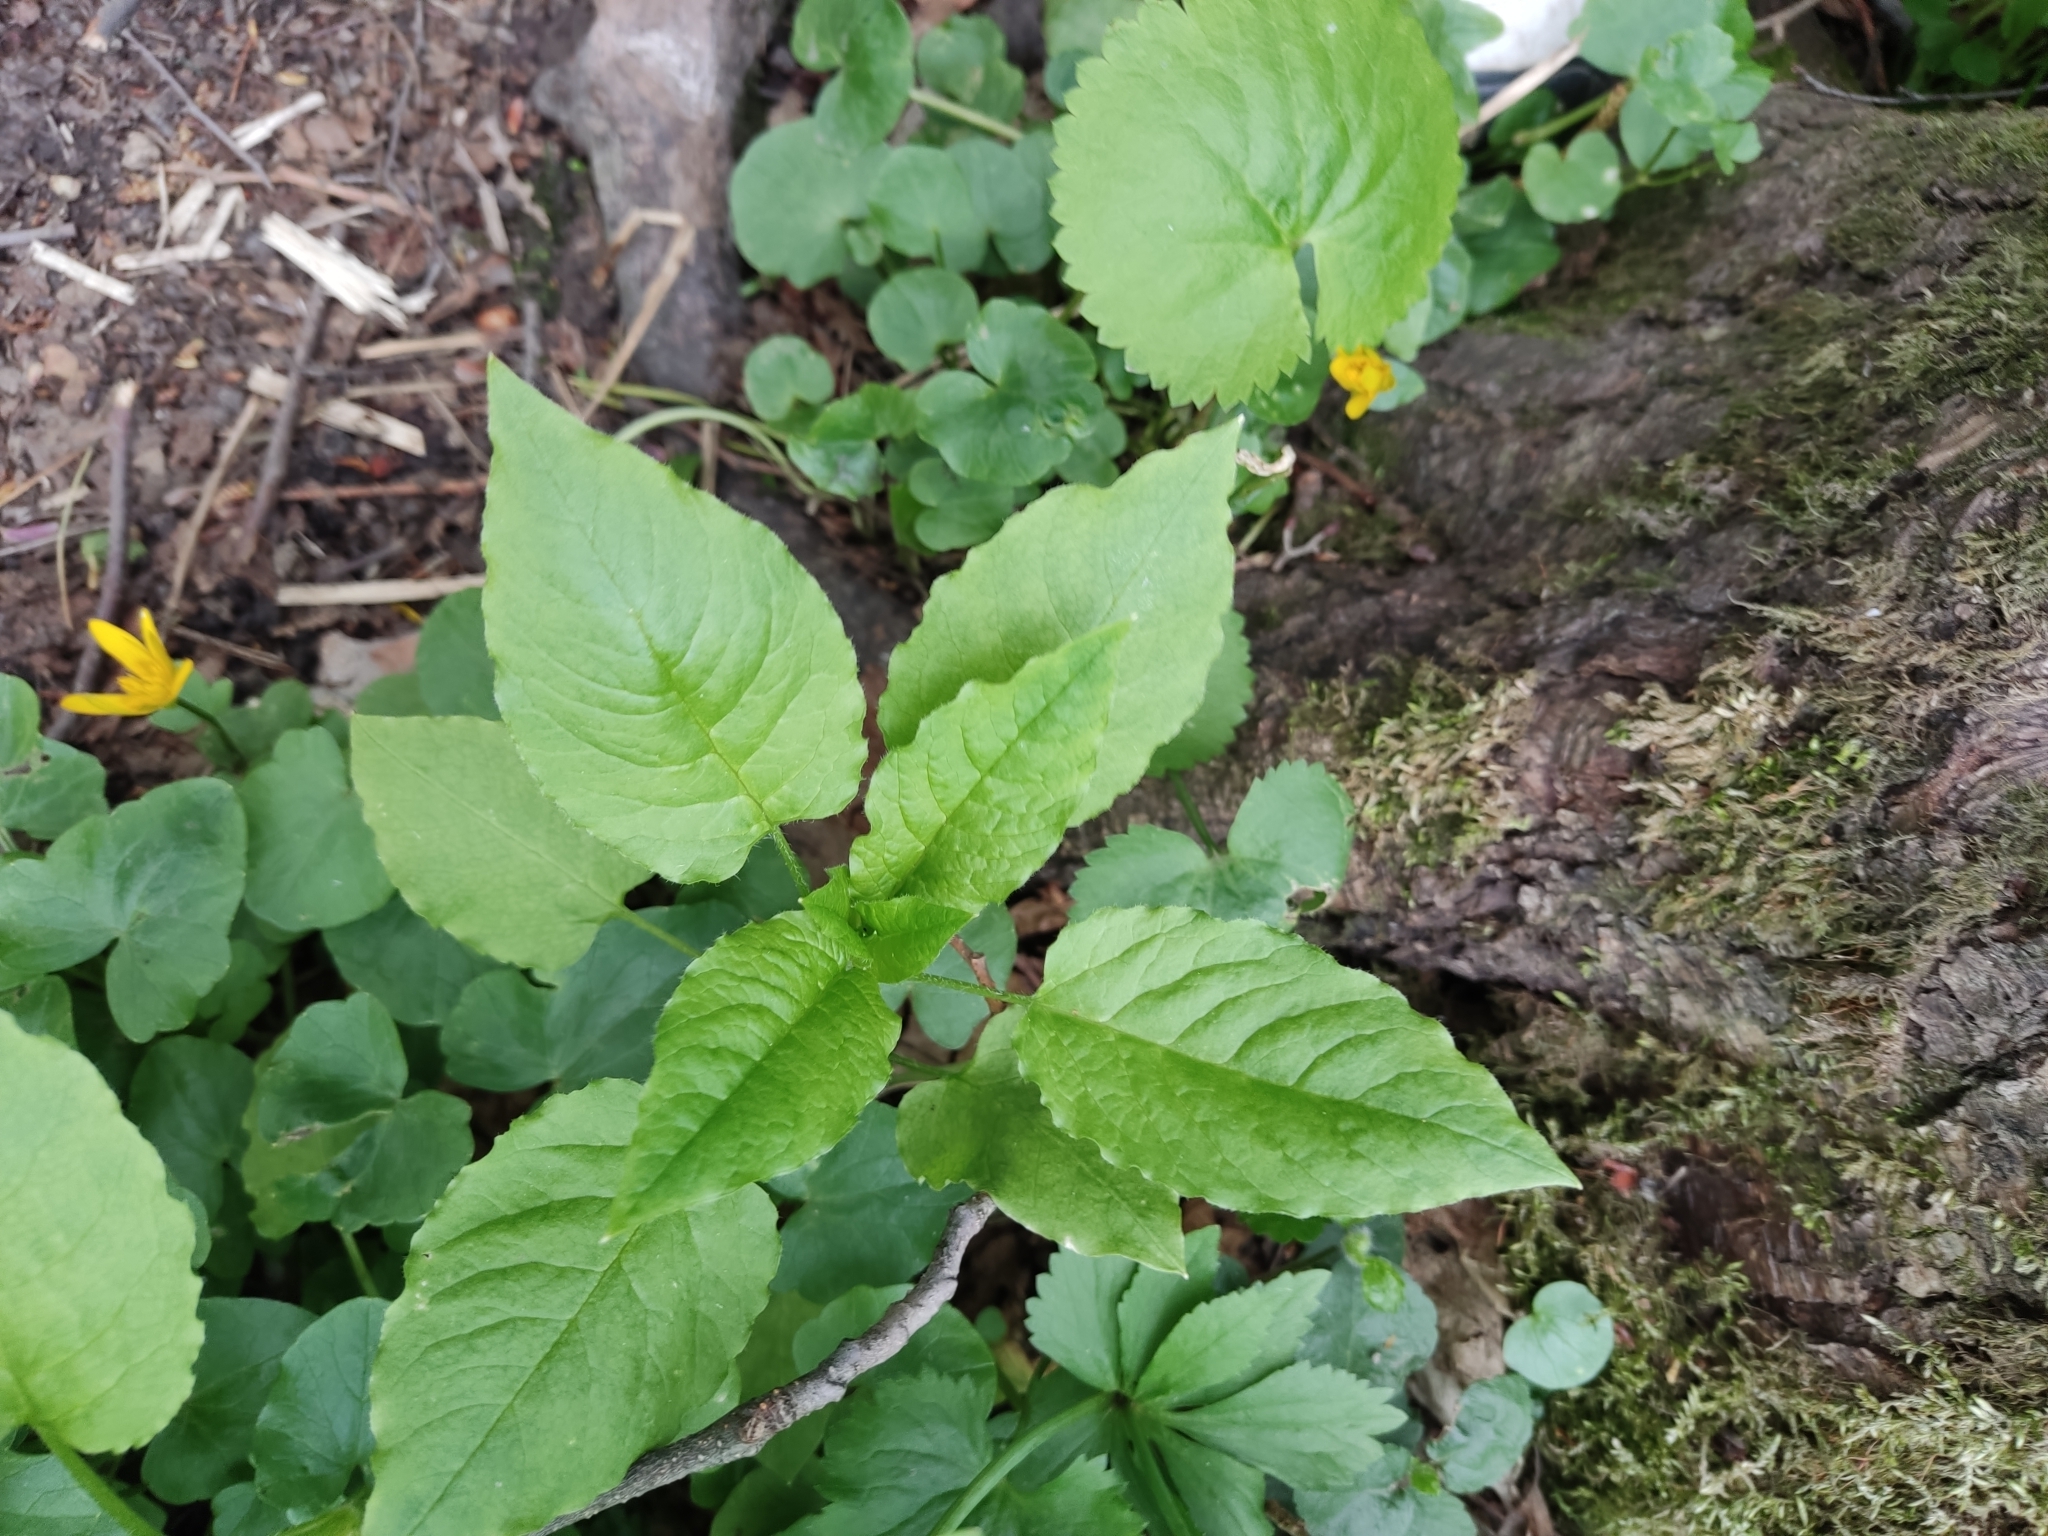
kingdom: Plantae
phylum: Tracheophyta
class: Magnoliopsida
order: Caryophyllales
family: Caryophyllaceae
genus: Stellaria
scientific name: Stellaria nemorum
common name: Wood stitchwort
